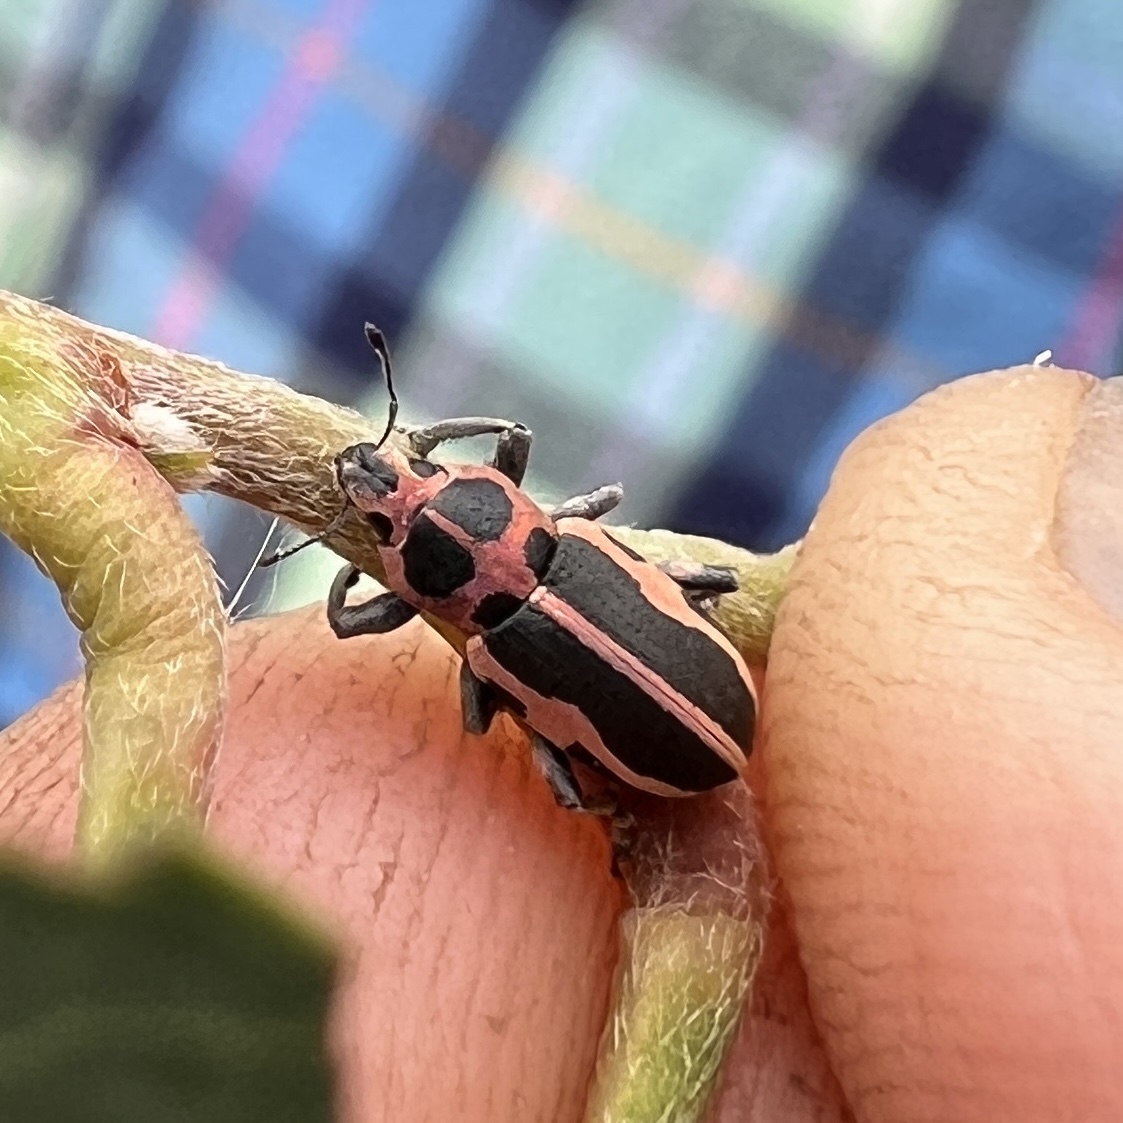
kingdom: Animalia
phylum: Arthropoda
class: Insecta
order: Coleoptera
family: Curculionidae
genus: Eudiagogus
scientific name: Eudiagogus pulcher
